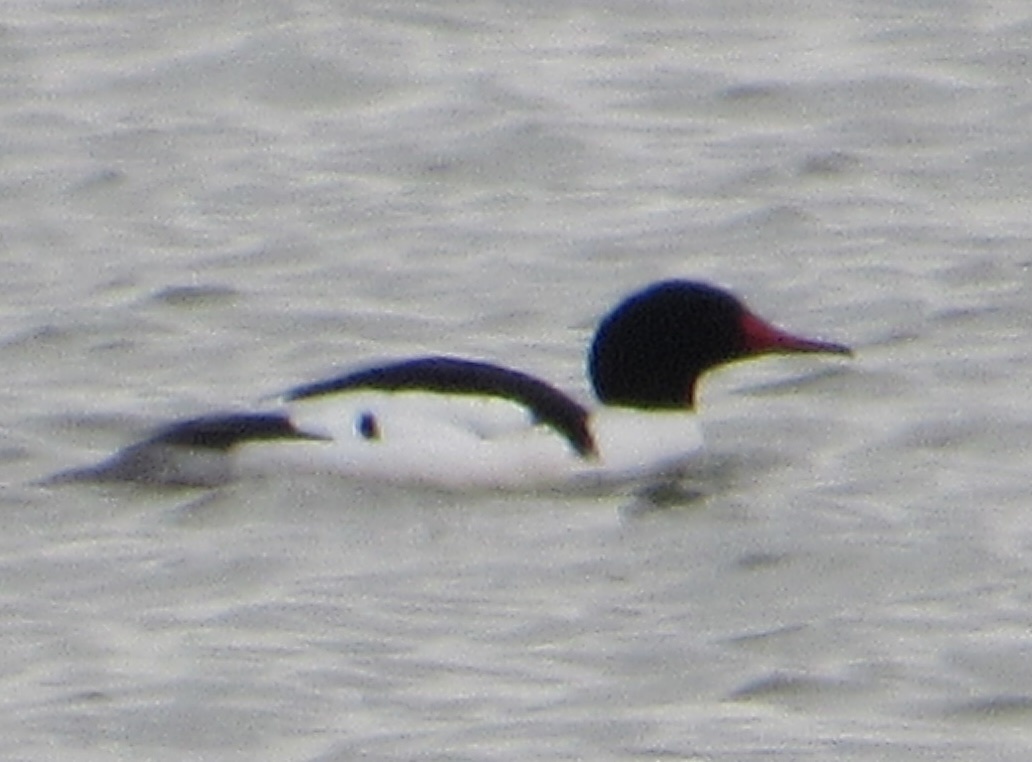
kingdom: Animalia
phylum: Chordata
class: Aves
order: Anseriformes
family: Anatidae
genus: Mergus
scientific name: Mergus merganser
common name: Common merganser
